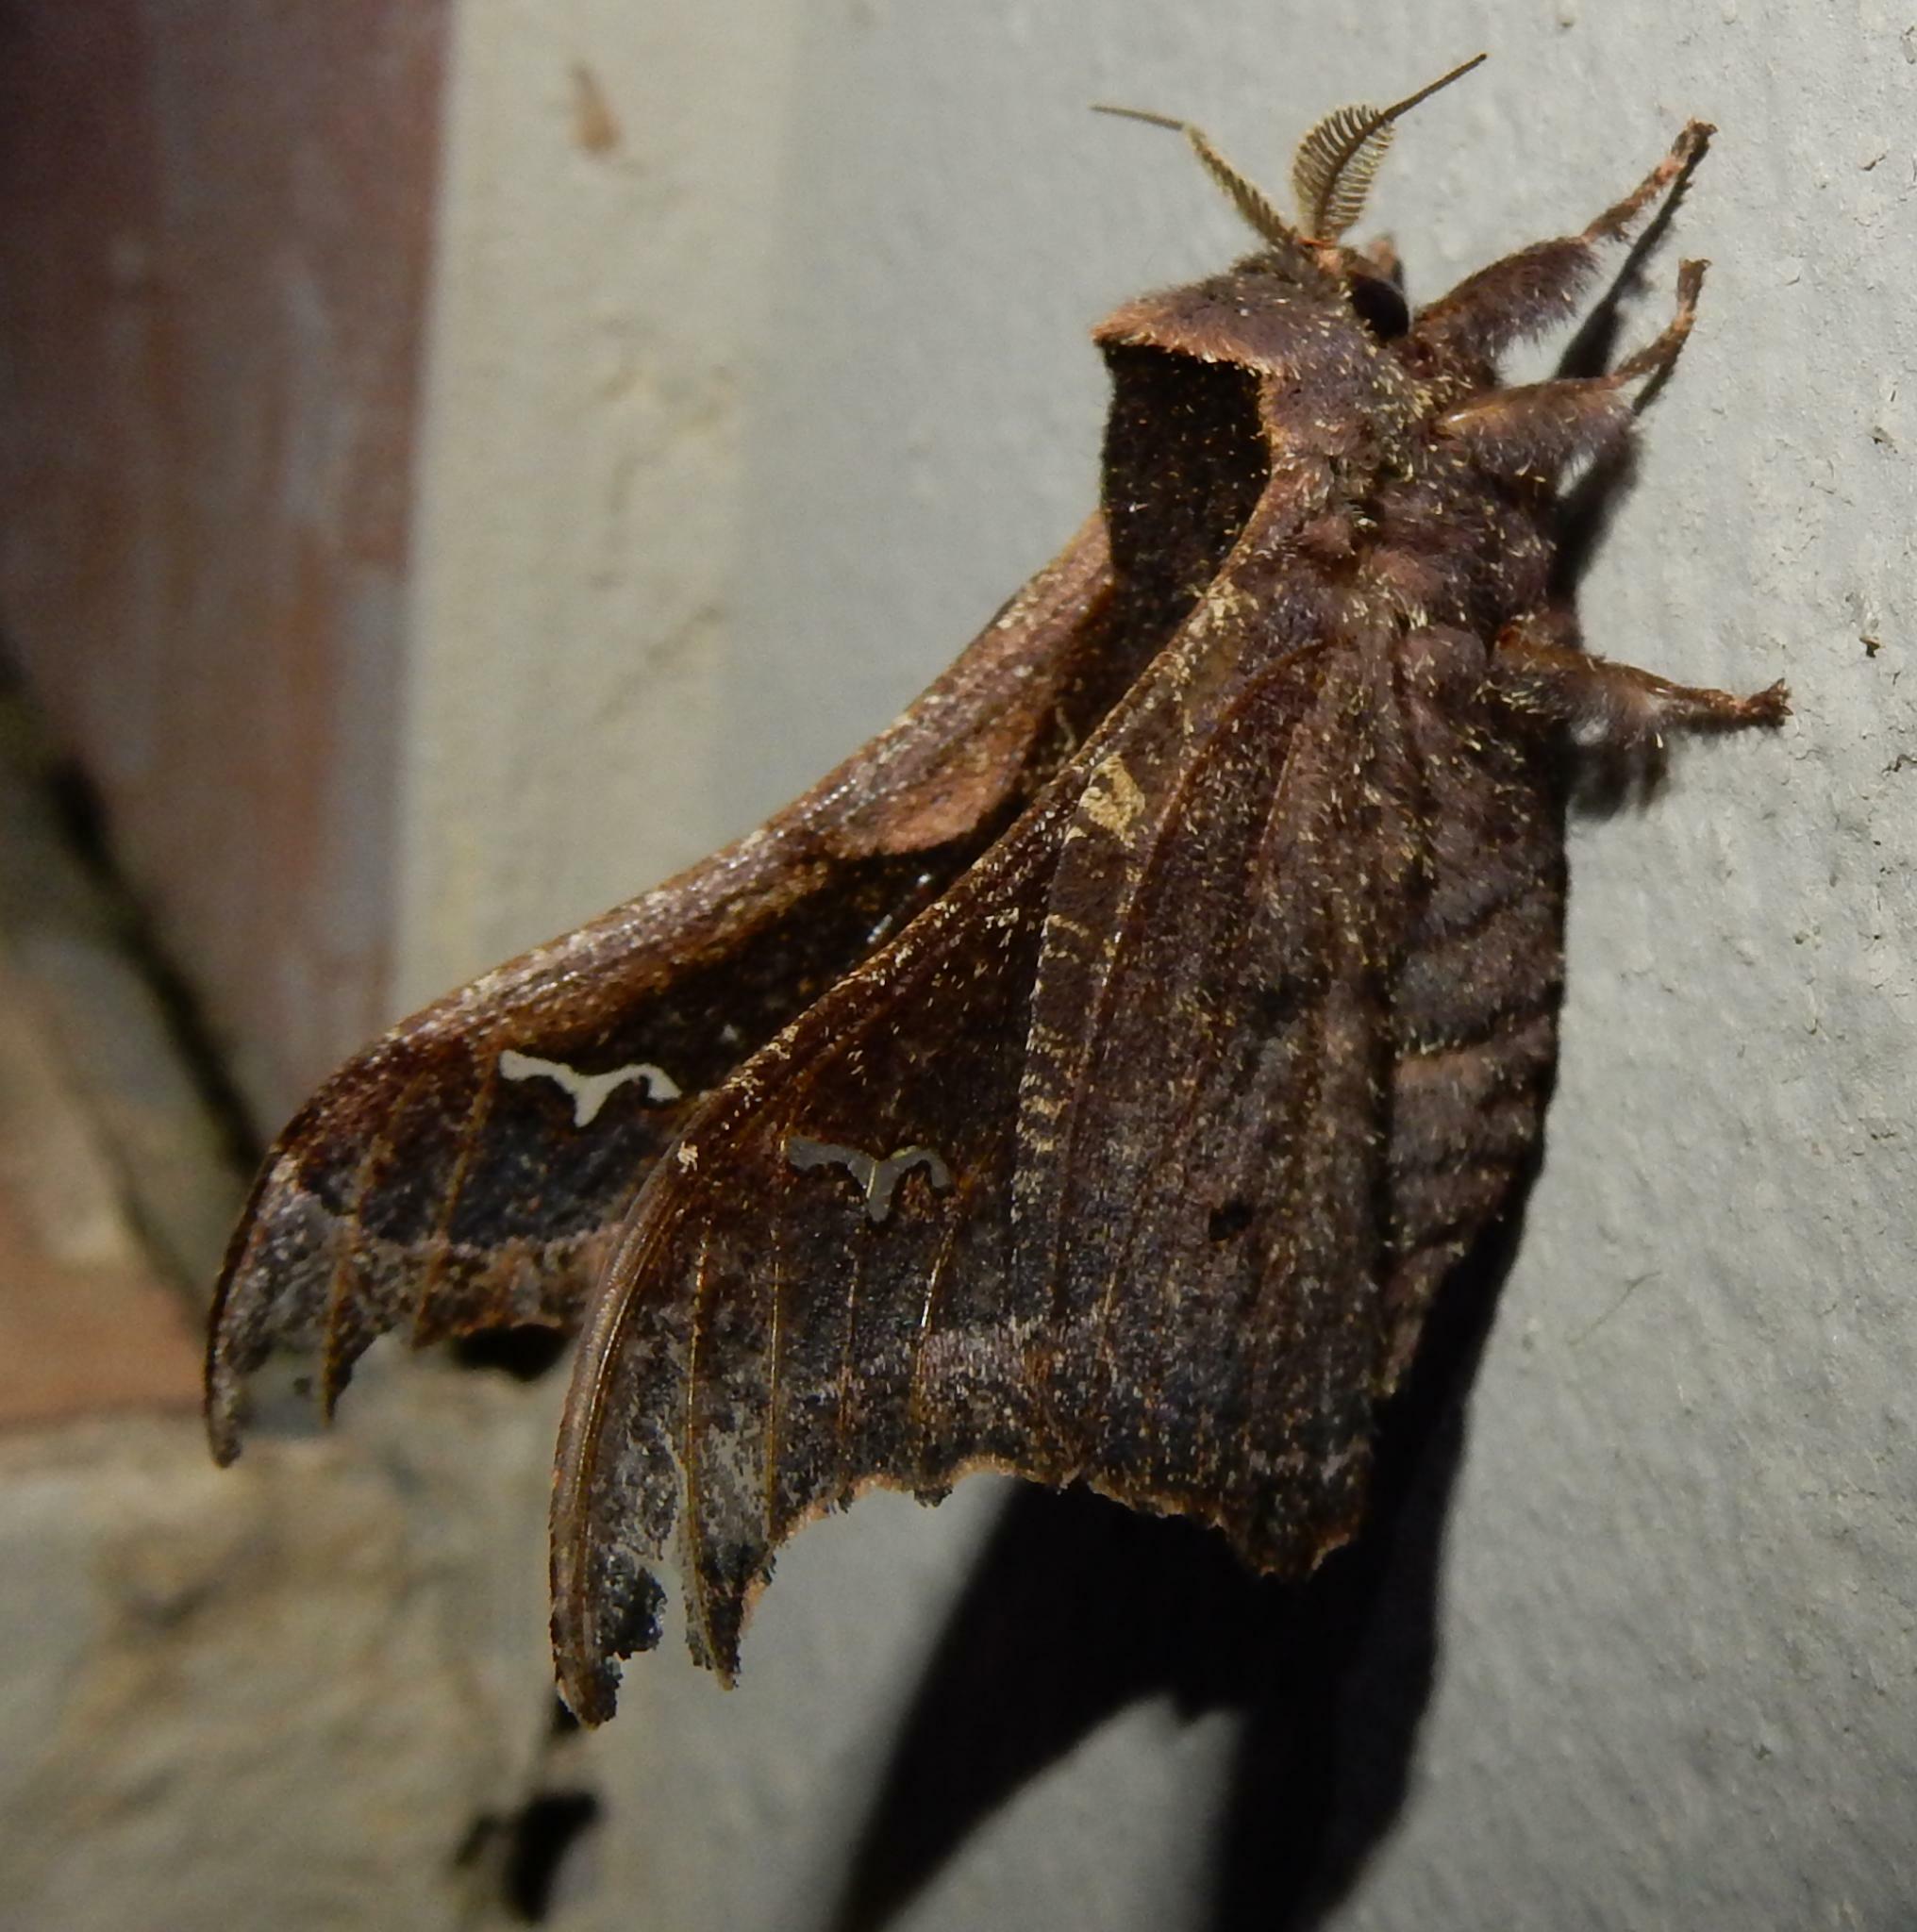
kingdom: Animalia
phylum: Arthropoda
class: Insecta
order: Lepidoptera
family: Saturniidae
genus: Ludia
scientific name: Ludia goniata
